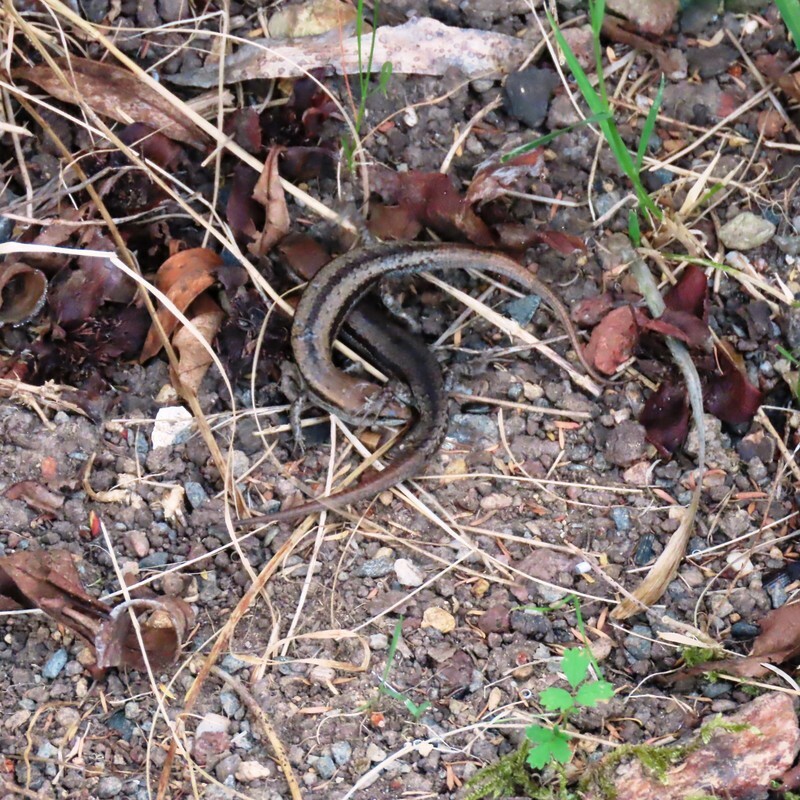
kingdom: Animalia
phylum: Chordata
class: Squamata
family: Scincidae
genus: Lampropholis
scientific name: Lampropholis guichenoti
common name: Garden skink
